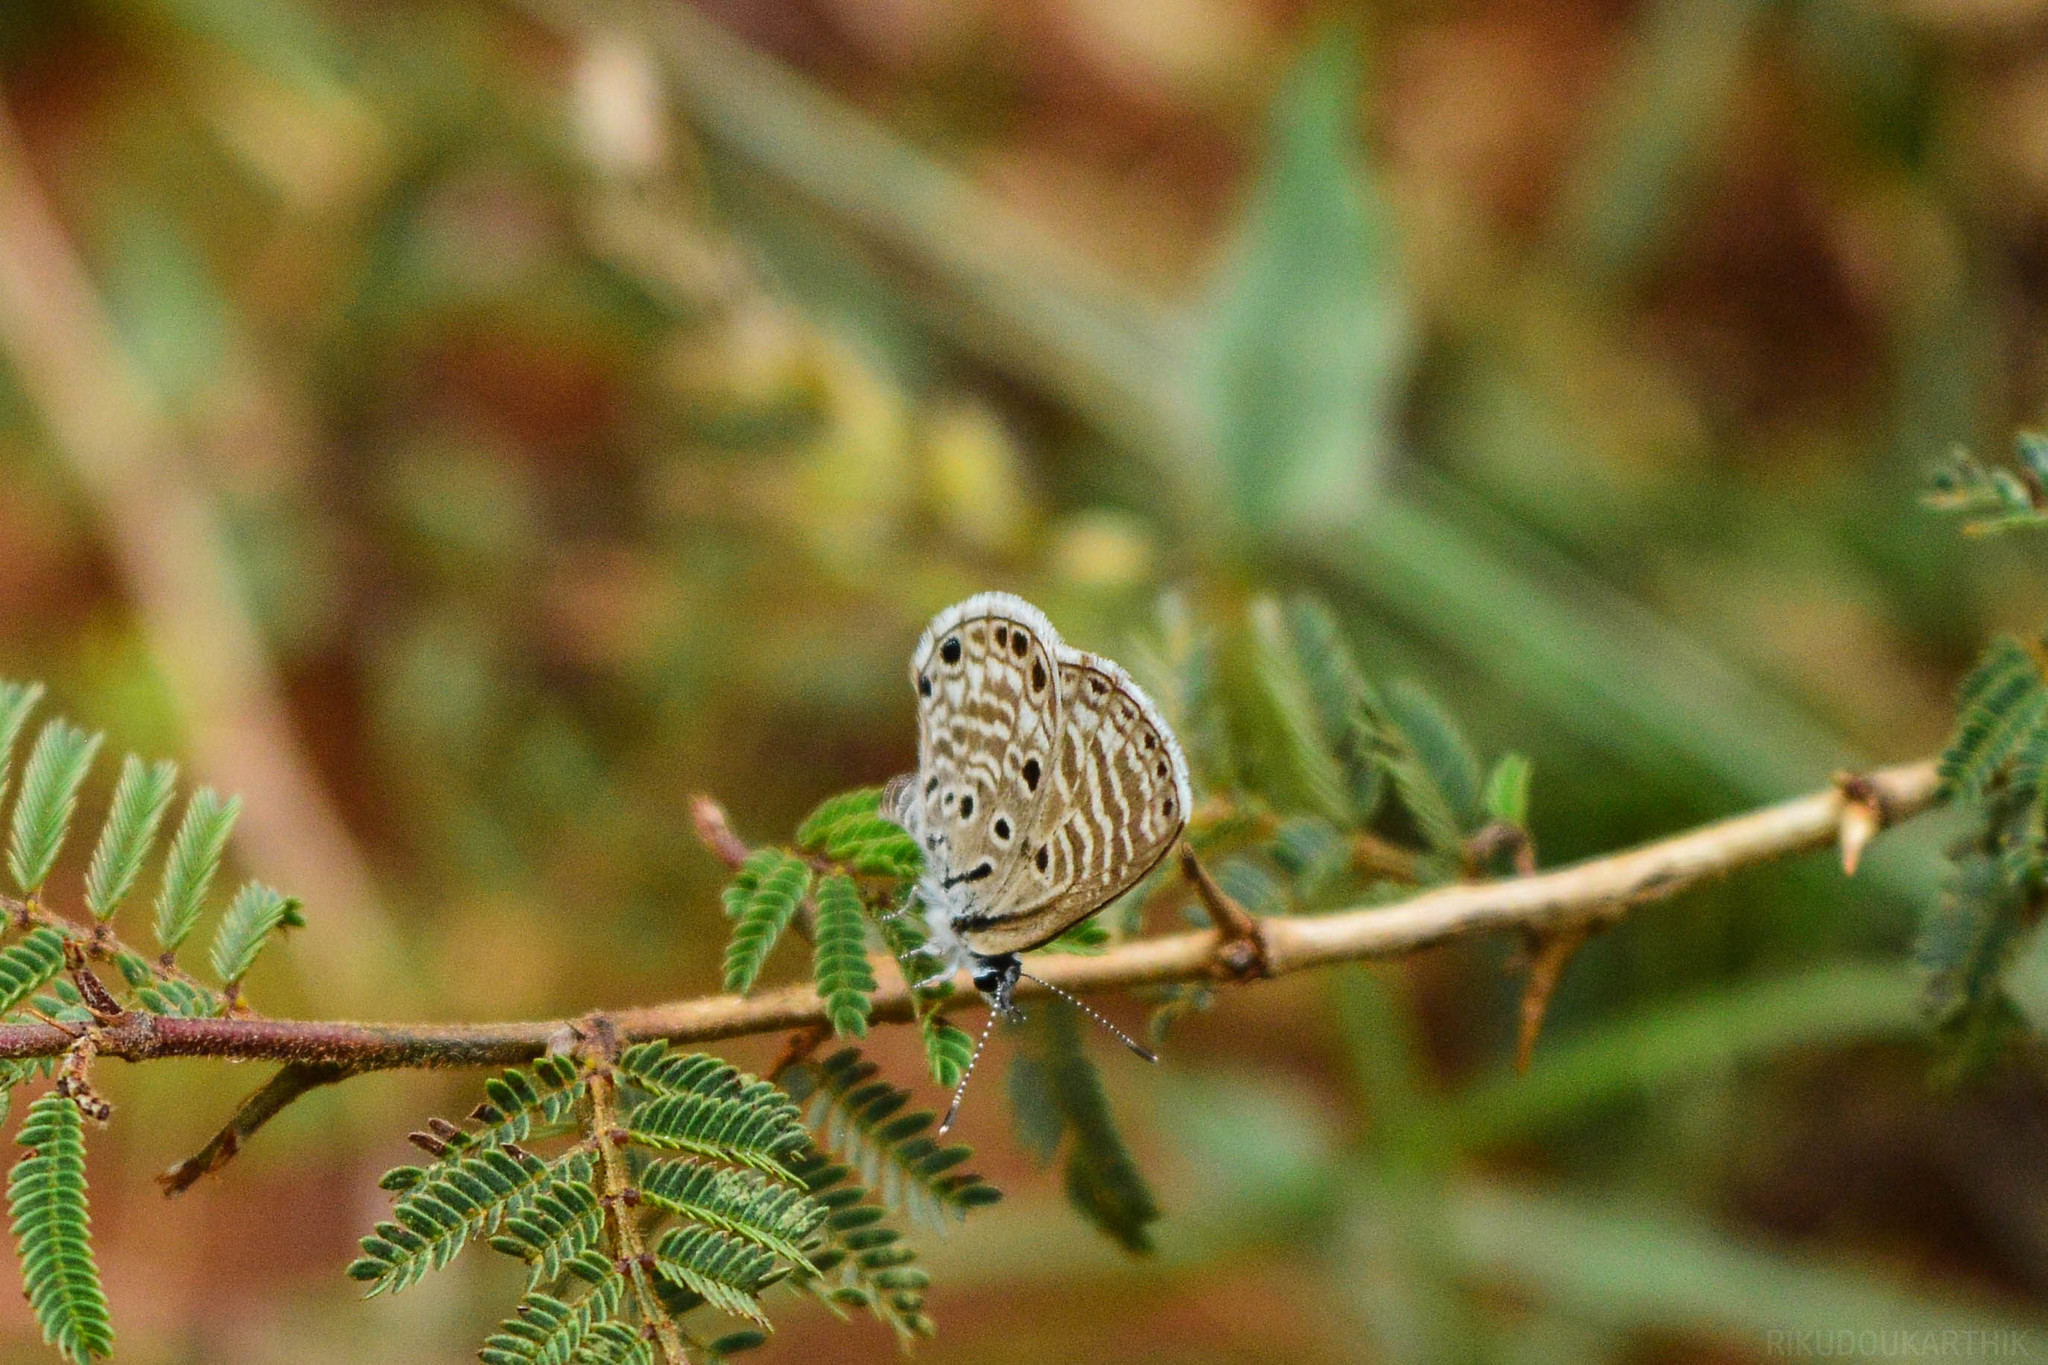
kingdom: Animalia
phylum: Arthropoda
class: Insecta
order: Lepidoptera
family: Lycaenidae
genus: Azanus
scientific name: Azanus jesous
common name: African babul blue
